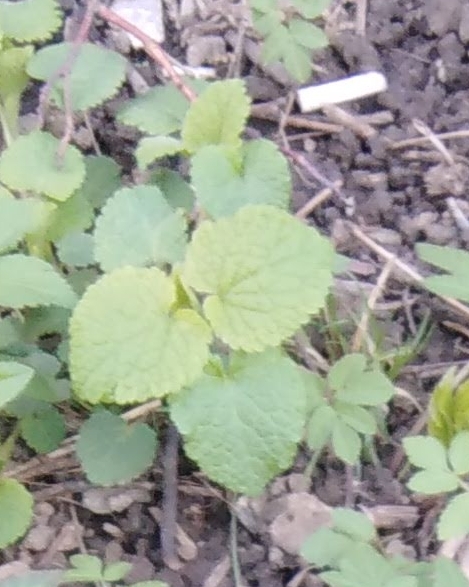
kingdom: Plantae
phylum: Tracheophyta
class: Magnoliopsida
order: Lamiales
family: Lamiaceae
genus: Lamium
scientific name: Lamium album
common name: White dead-nettle
